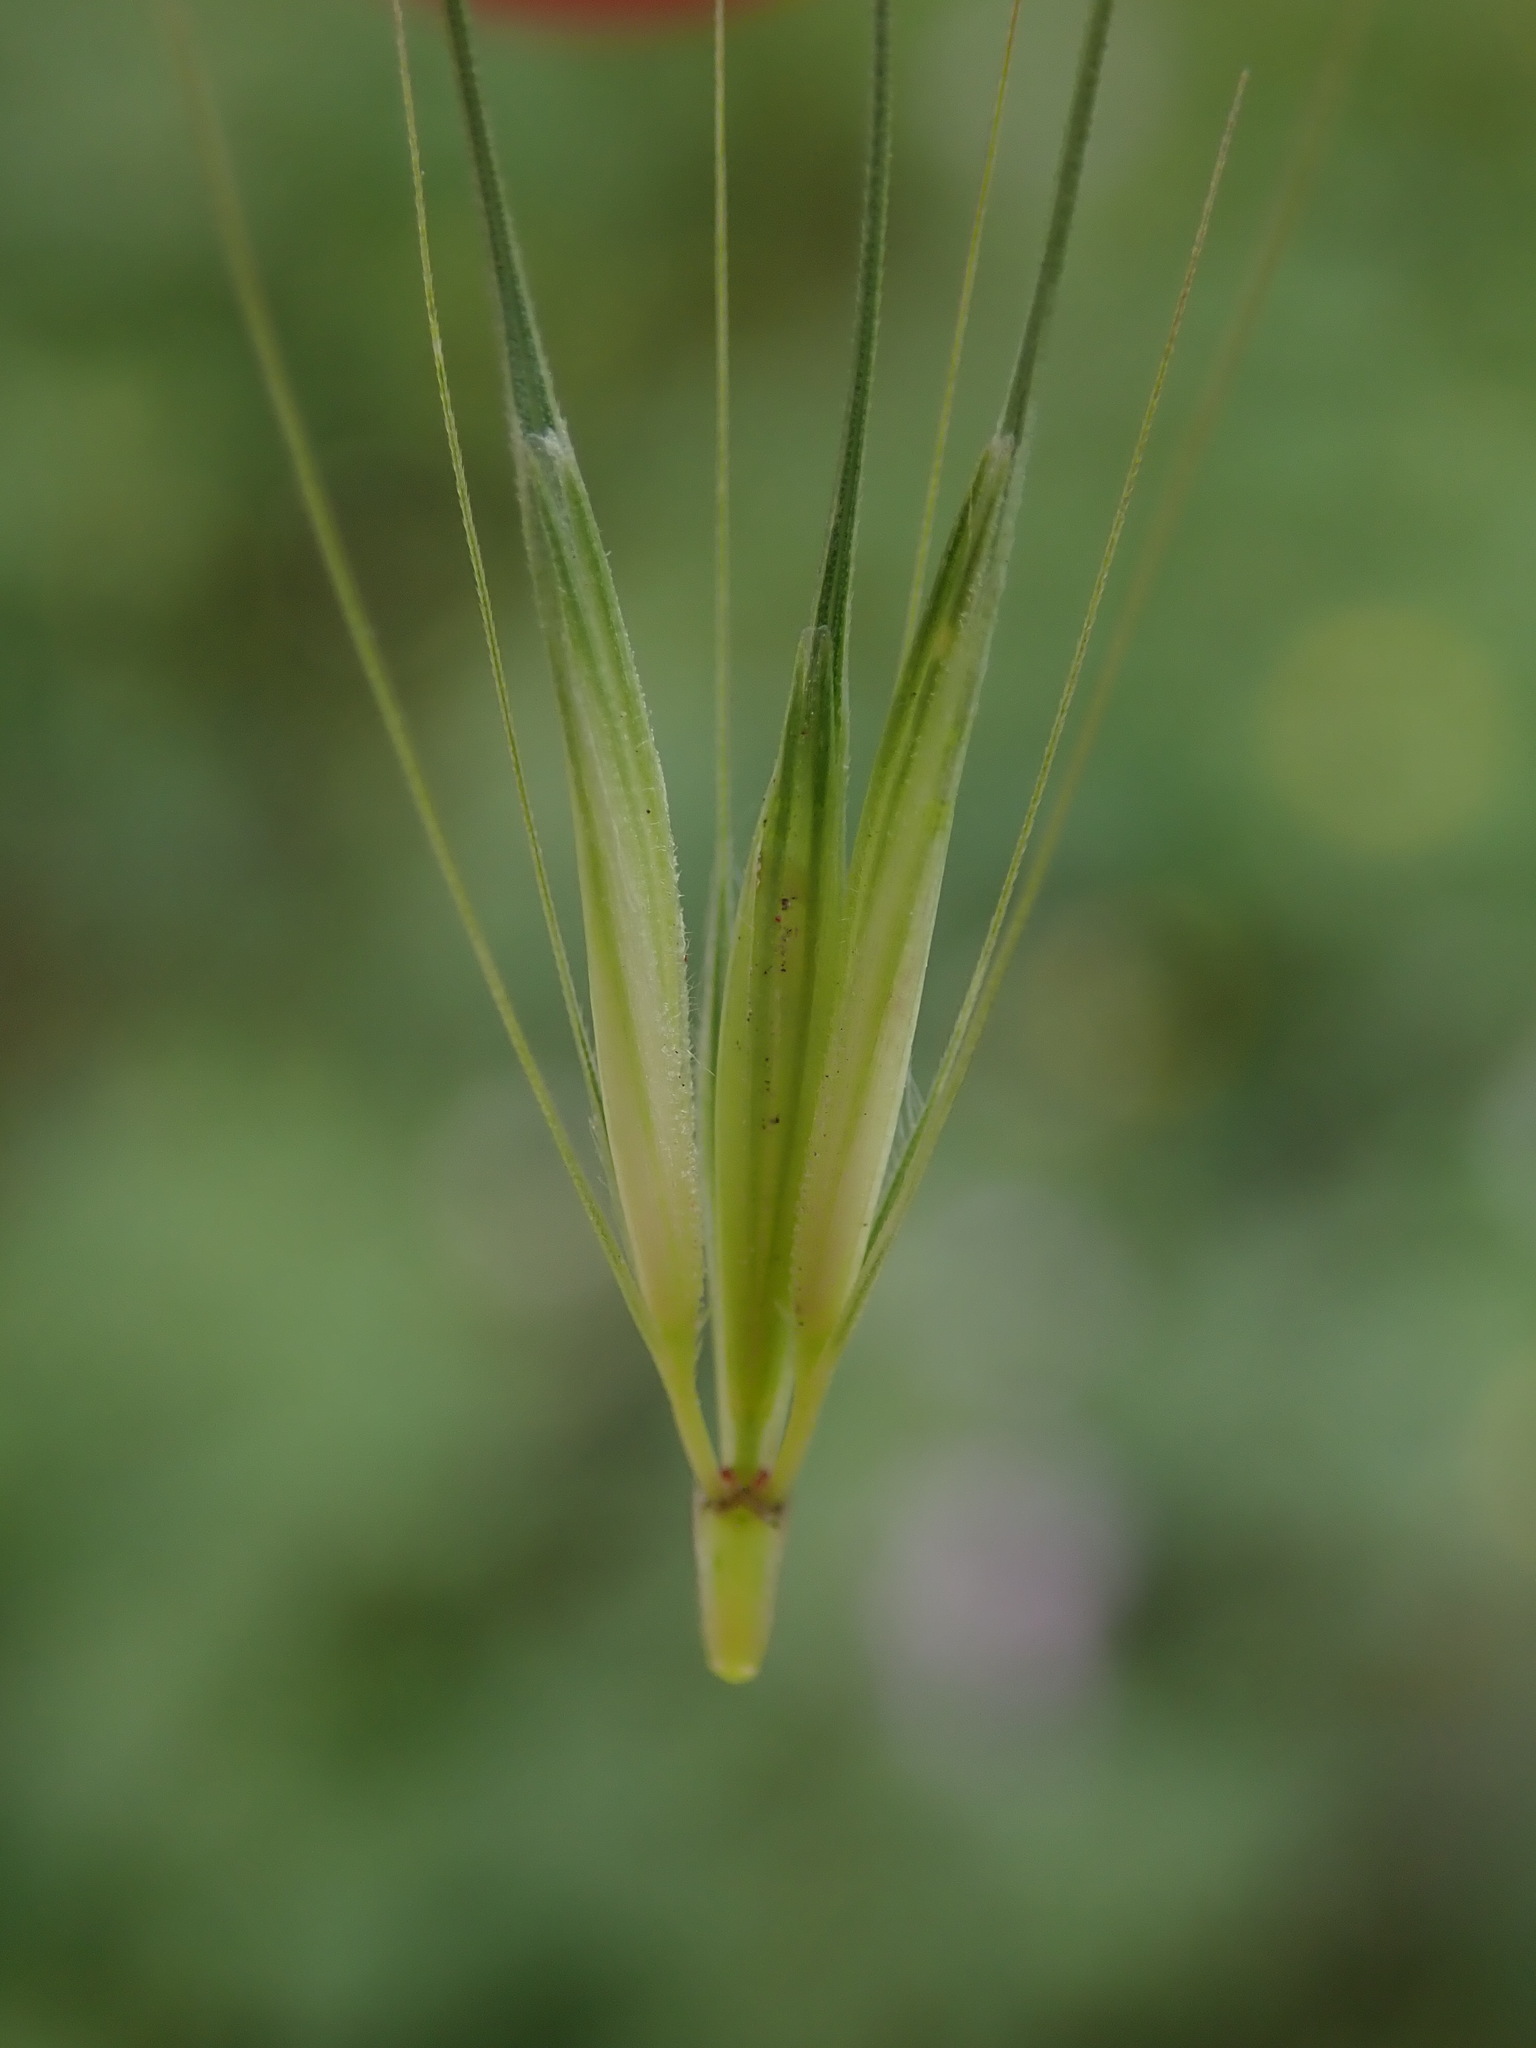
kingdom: Plantae
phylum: Tracheophyta
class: Liliopsida
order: Poales
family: Poaceae
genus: Hordeum
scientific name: Hordeum murinum
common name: Wall barley
